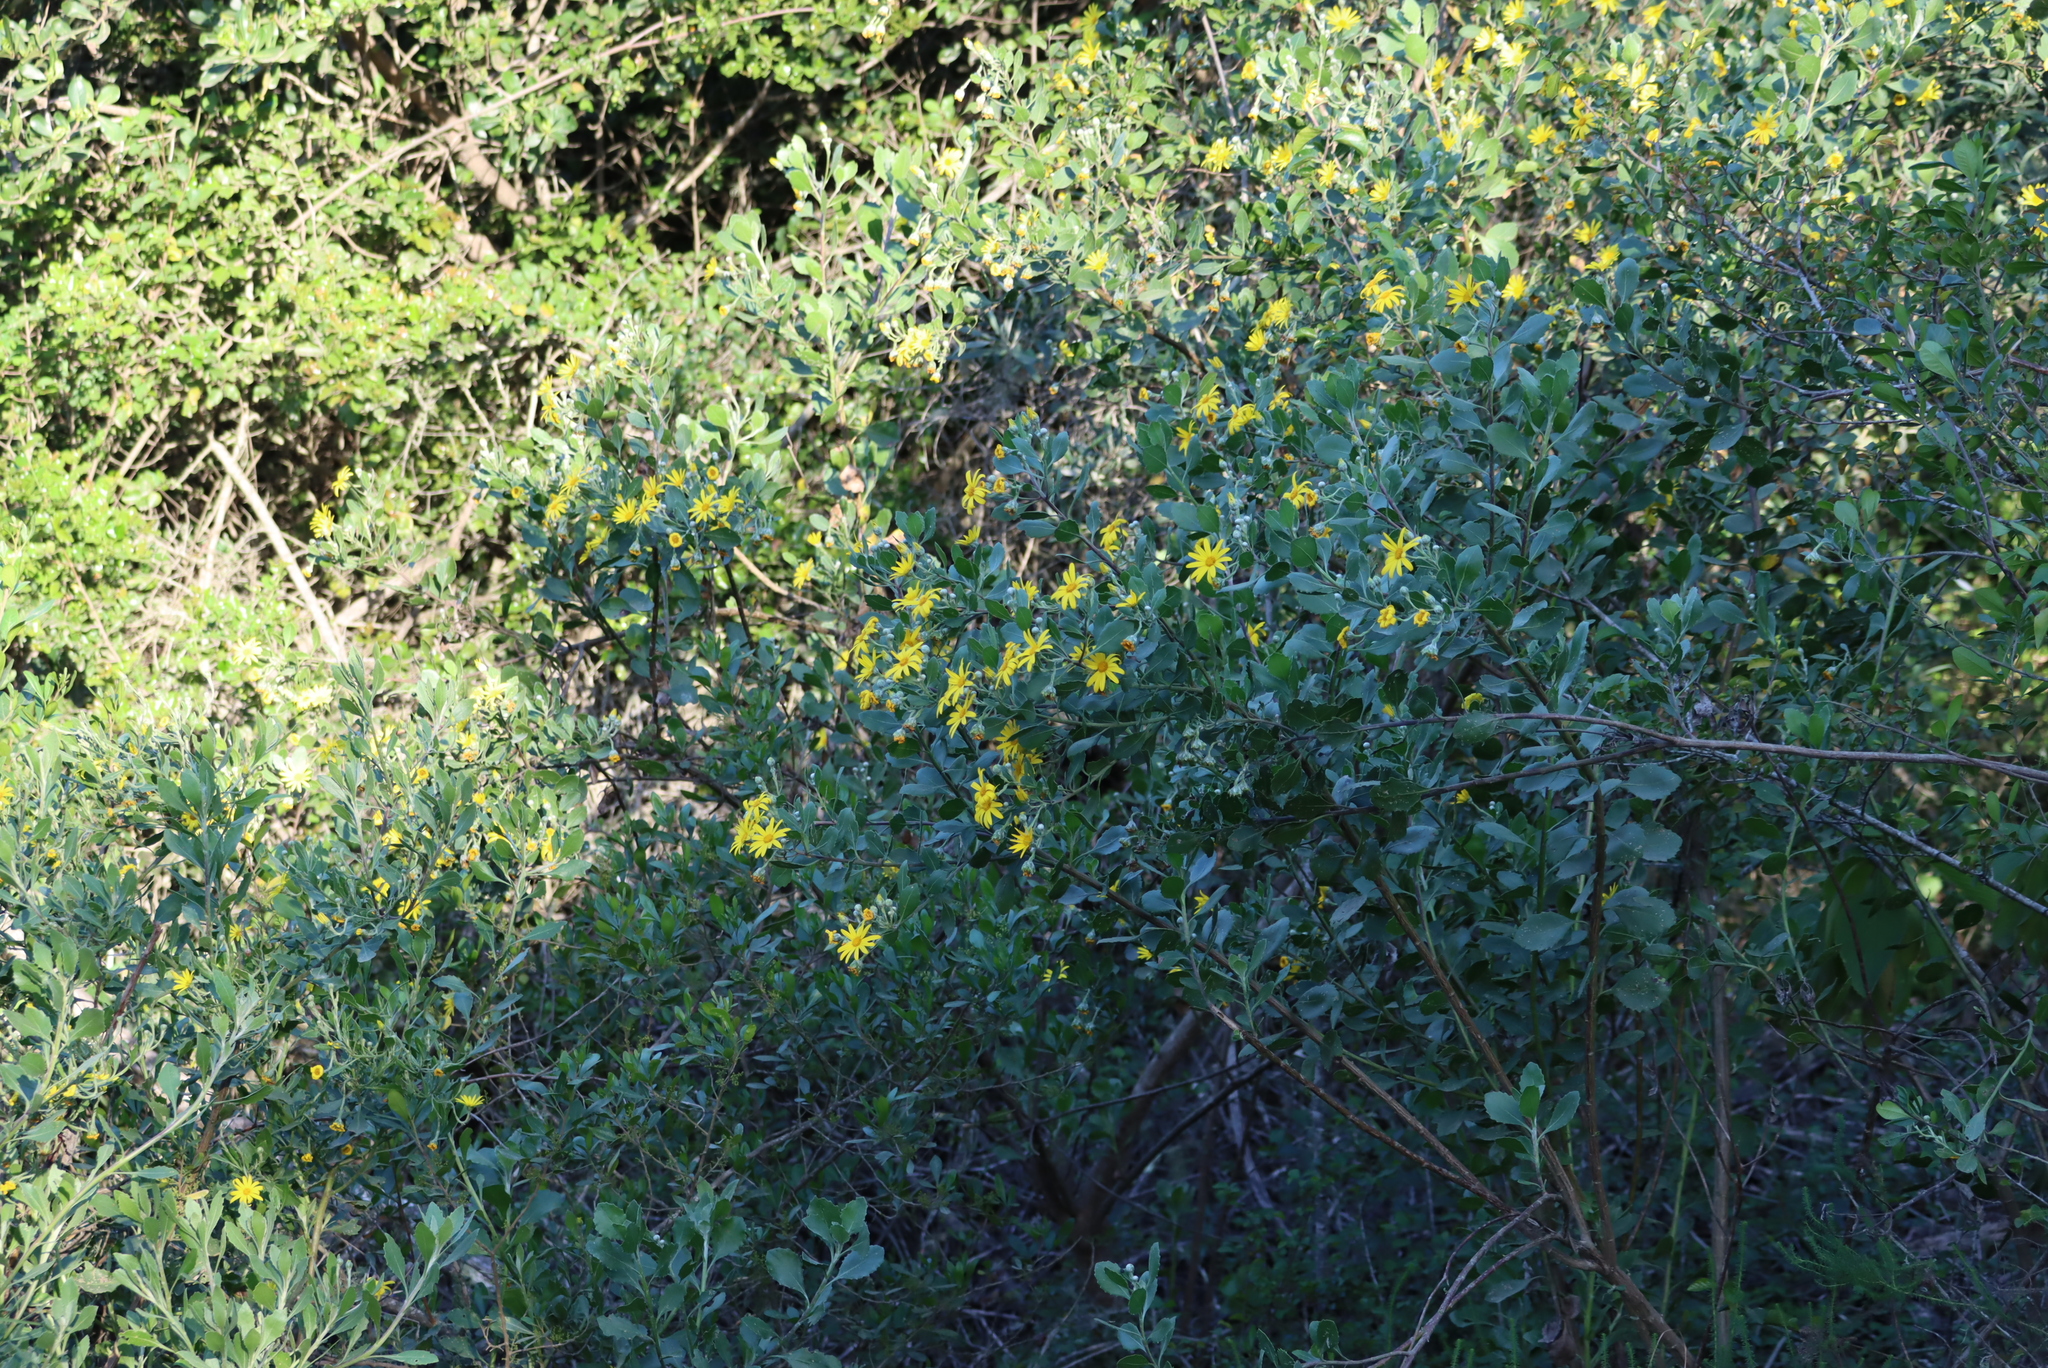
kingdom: Plantae
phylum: Tracheophyta
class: Magnoliopsida
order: Asterales
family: Asteraceae
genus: Osteospermum
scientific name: Osteospermum moniliferum
